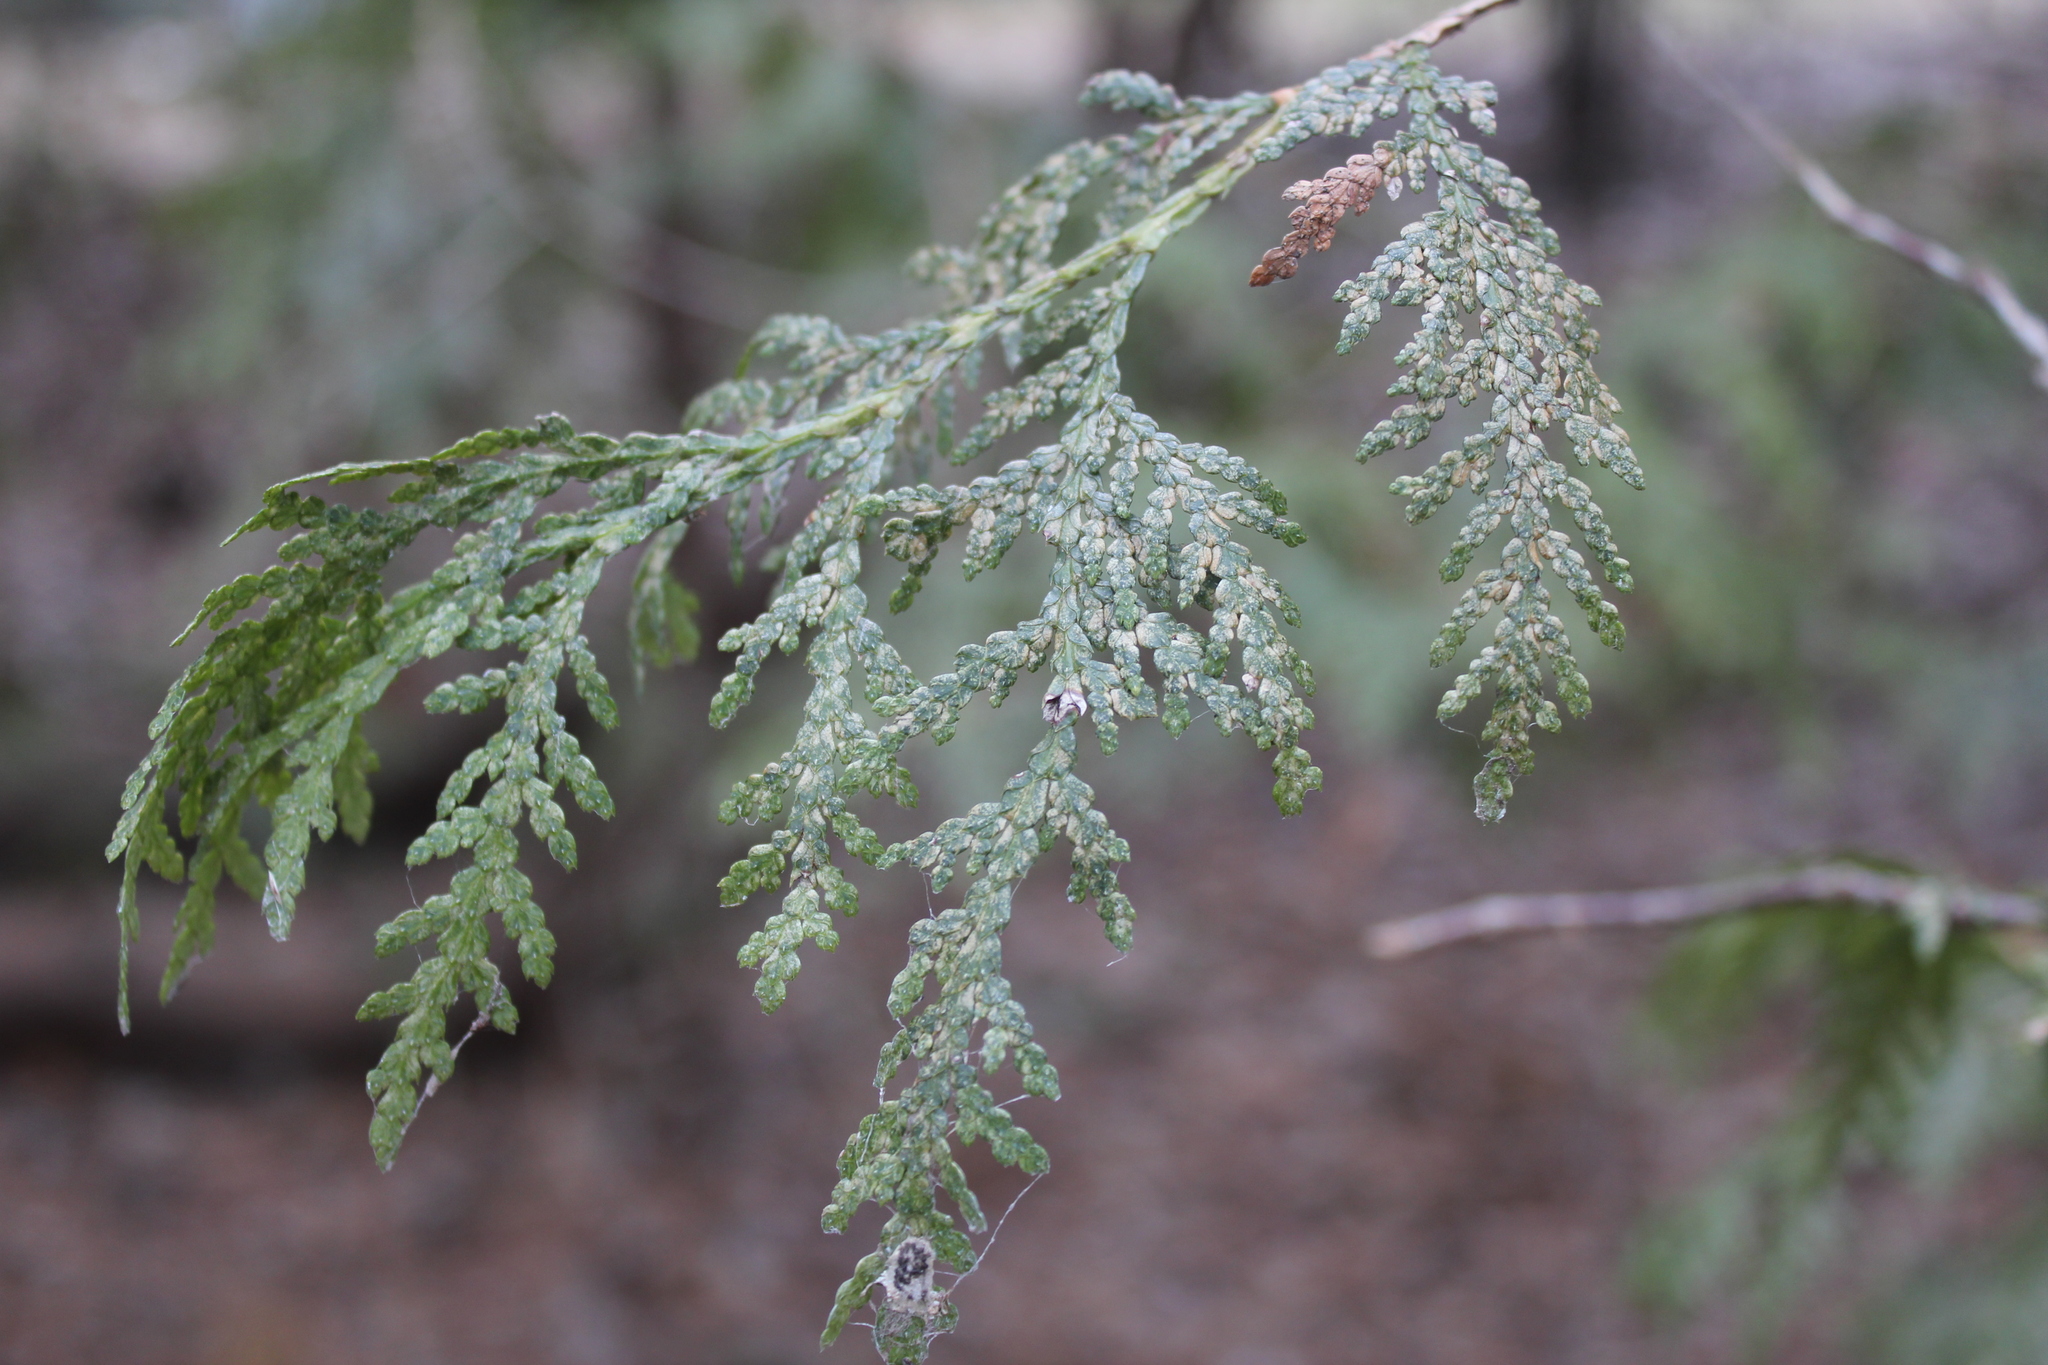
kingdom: Plantae
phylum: Tracheophyta
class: Pinopsida
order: Pinales
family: Cupressaceae
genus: Thuja
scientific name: Thuja occidentalis
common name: Northern white-cedar
